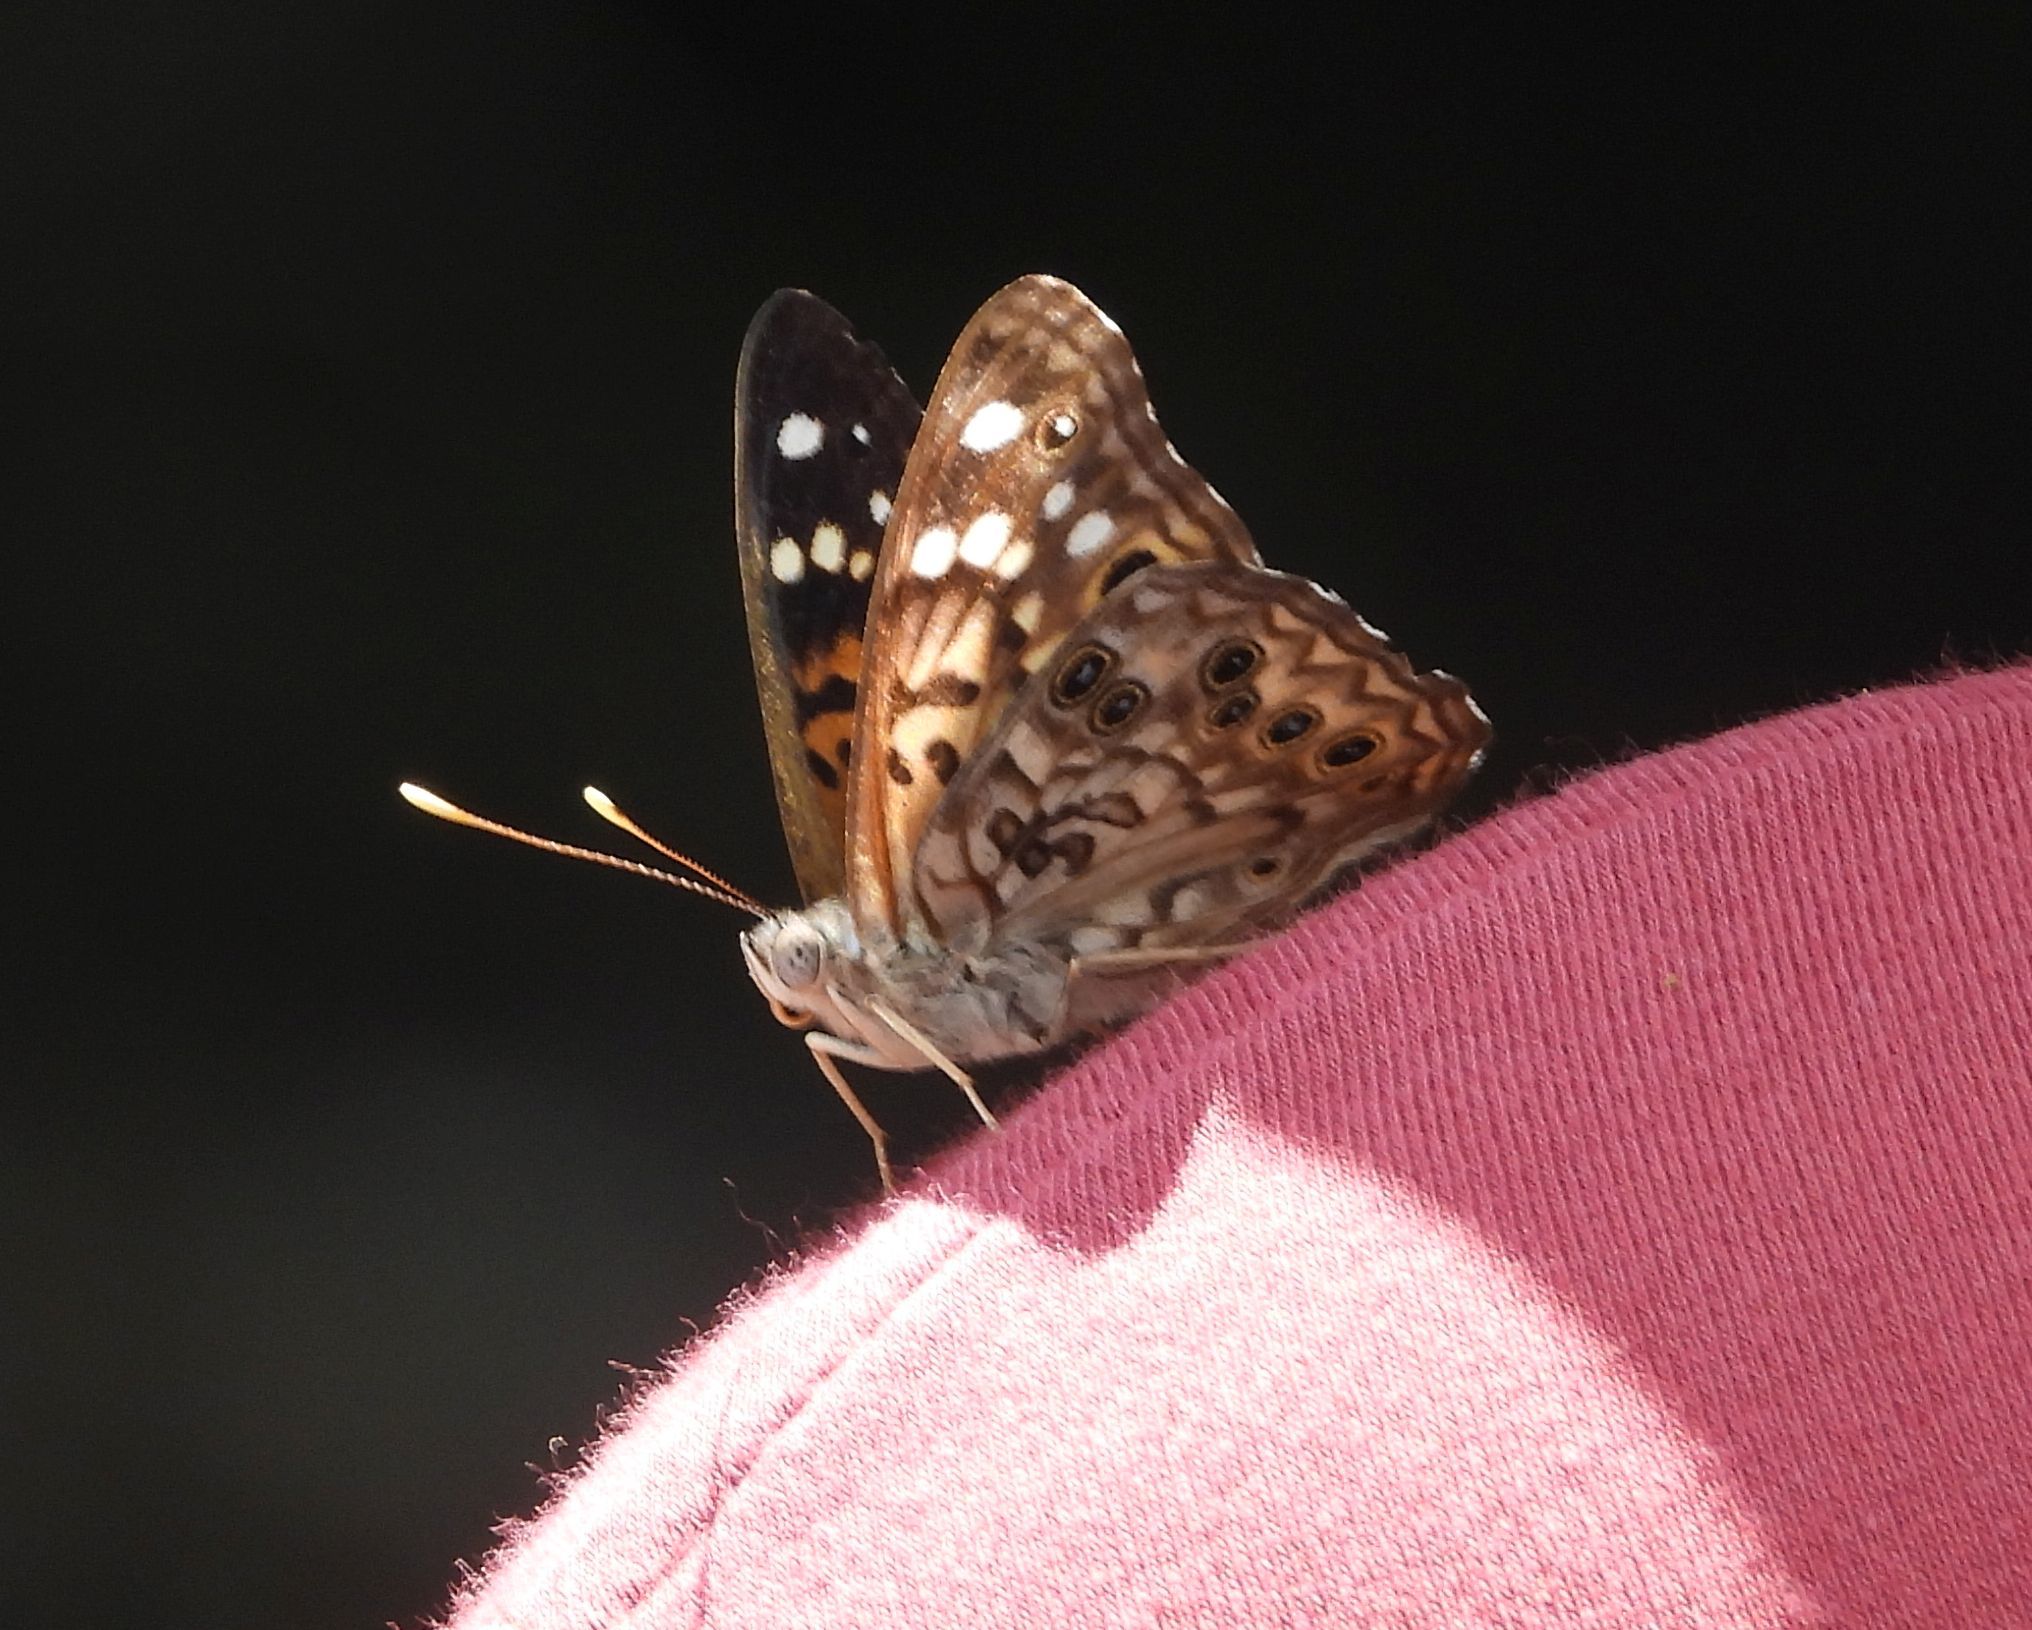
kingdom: Animalia
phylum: Arthropoda
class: Insecta
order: Lepidoptera
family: Nymphalidae
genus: Asterocampa
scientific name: Asterocampa celtis
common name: Hackberry emperor
